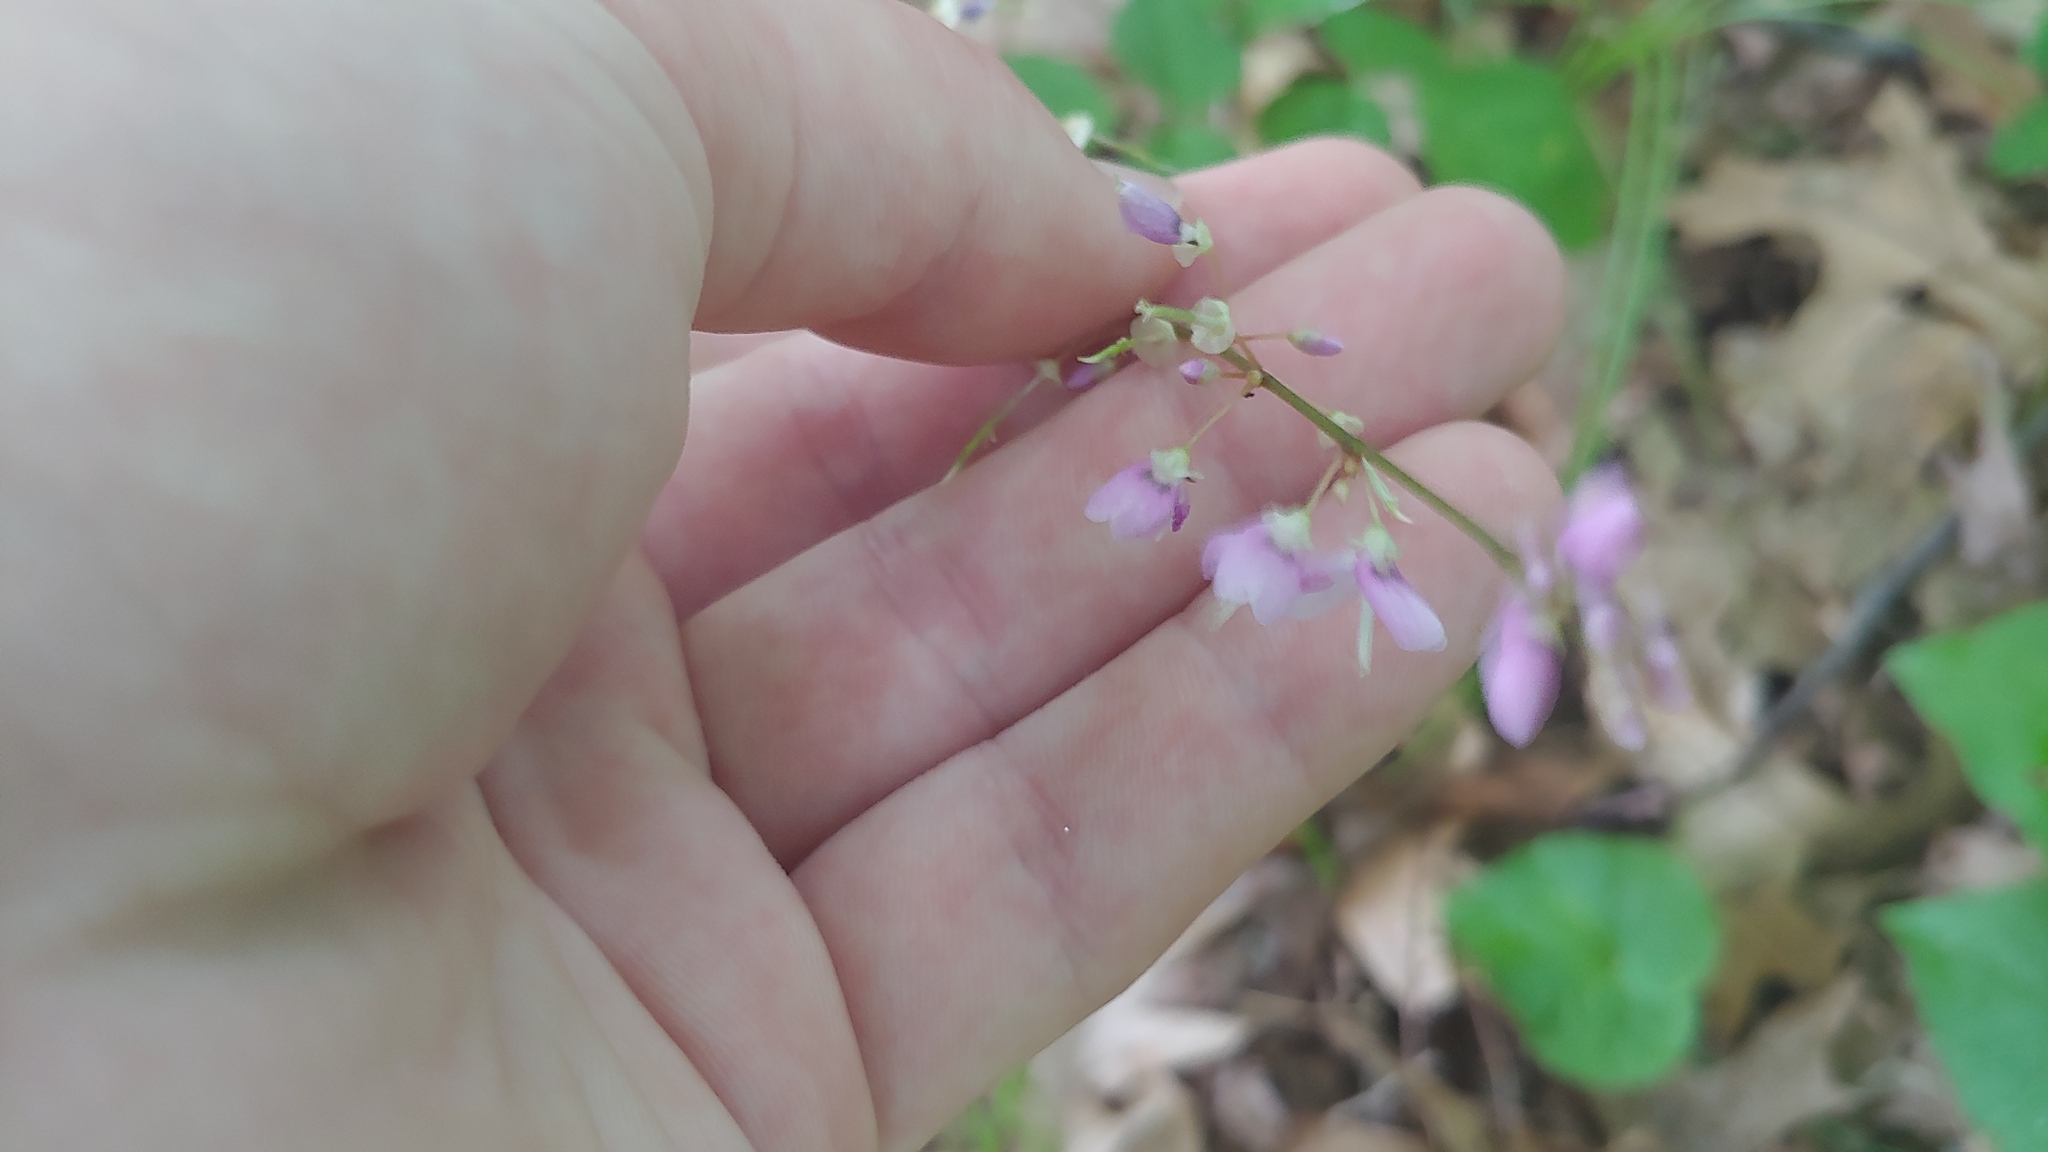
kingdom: Plantae
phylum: Tracheophyta
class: Magnoliopsida
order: Fabales
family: Fabaceae
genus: Hylodesmum
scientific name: Hylodesmum nudiflorum
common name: Bare-stemmed tick-trefoil
